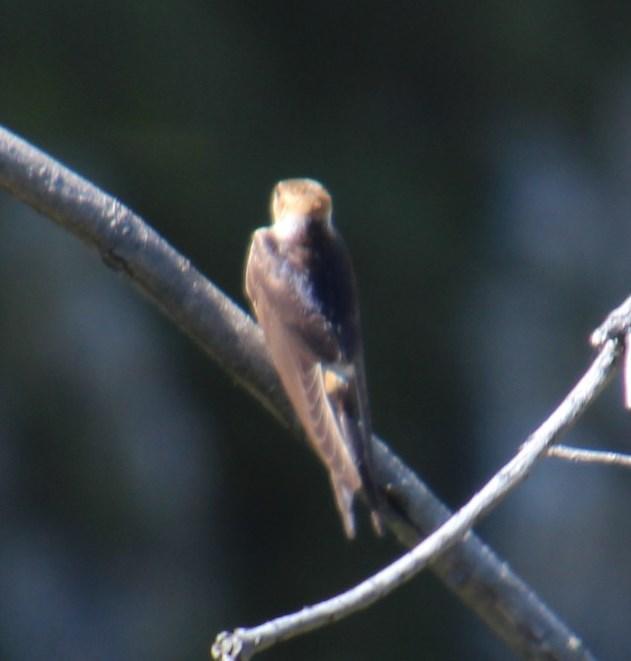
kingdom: Animalia
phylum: Chordata
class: Aves
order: Passeriformes
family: Hirundinidae
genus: Cecropis
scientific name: Cecropis cucullata
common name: Greater striped-swallow
